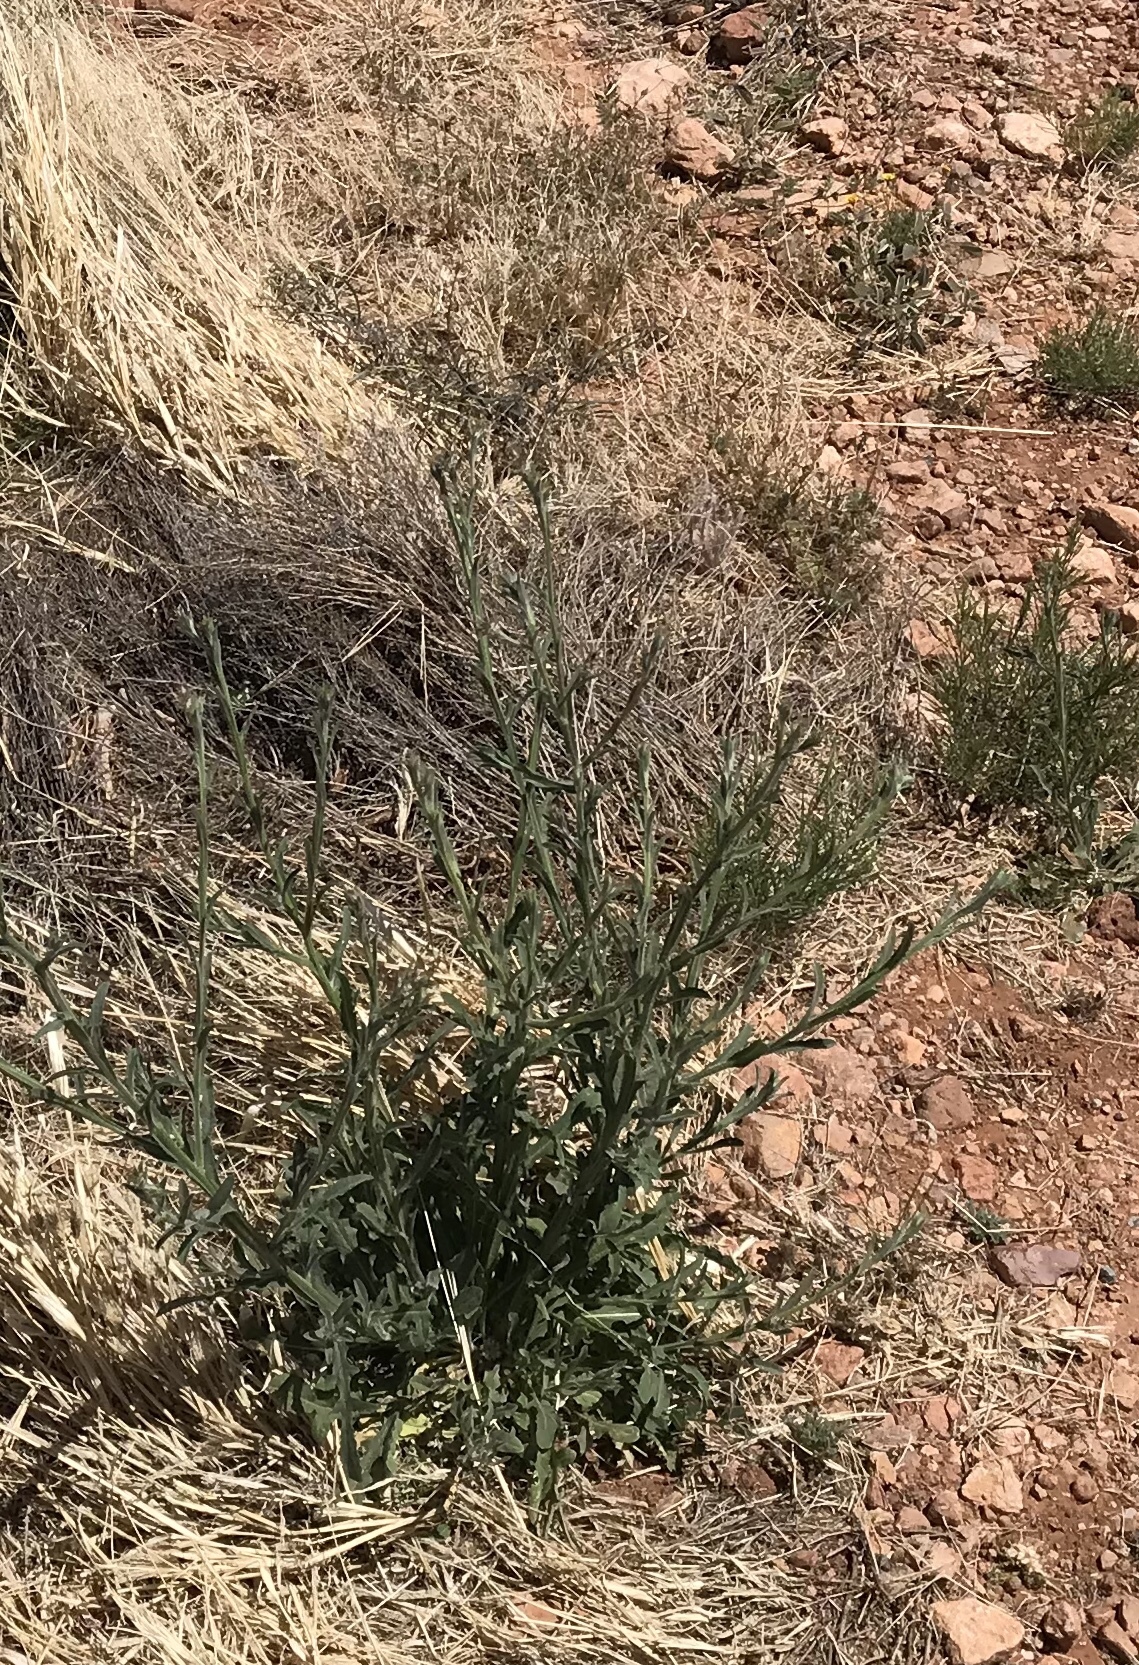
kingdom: Plantae
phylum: Tracheophyta
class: Magnoliopsida
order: Asterales
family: Asteraceae
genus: Centaurea
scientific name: Centaurea melitensis
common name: Maltese star-thistle
